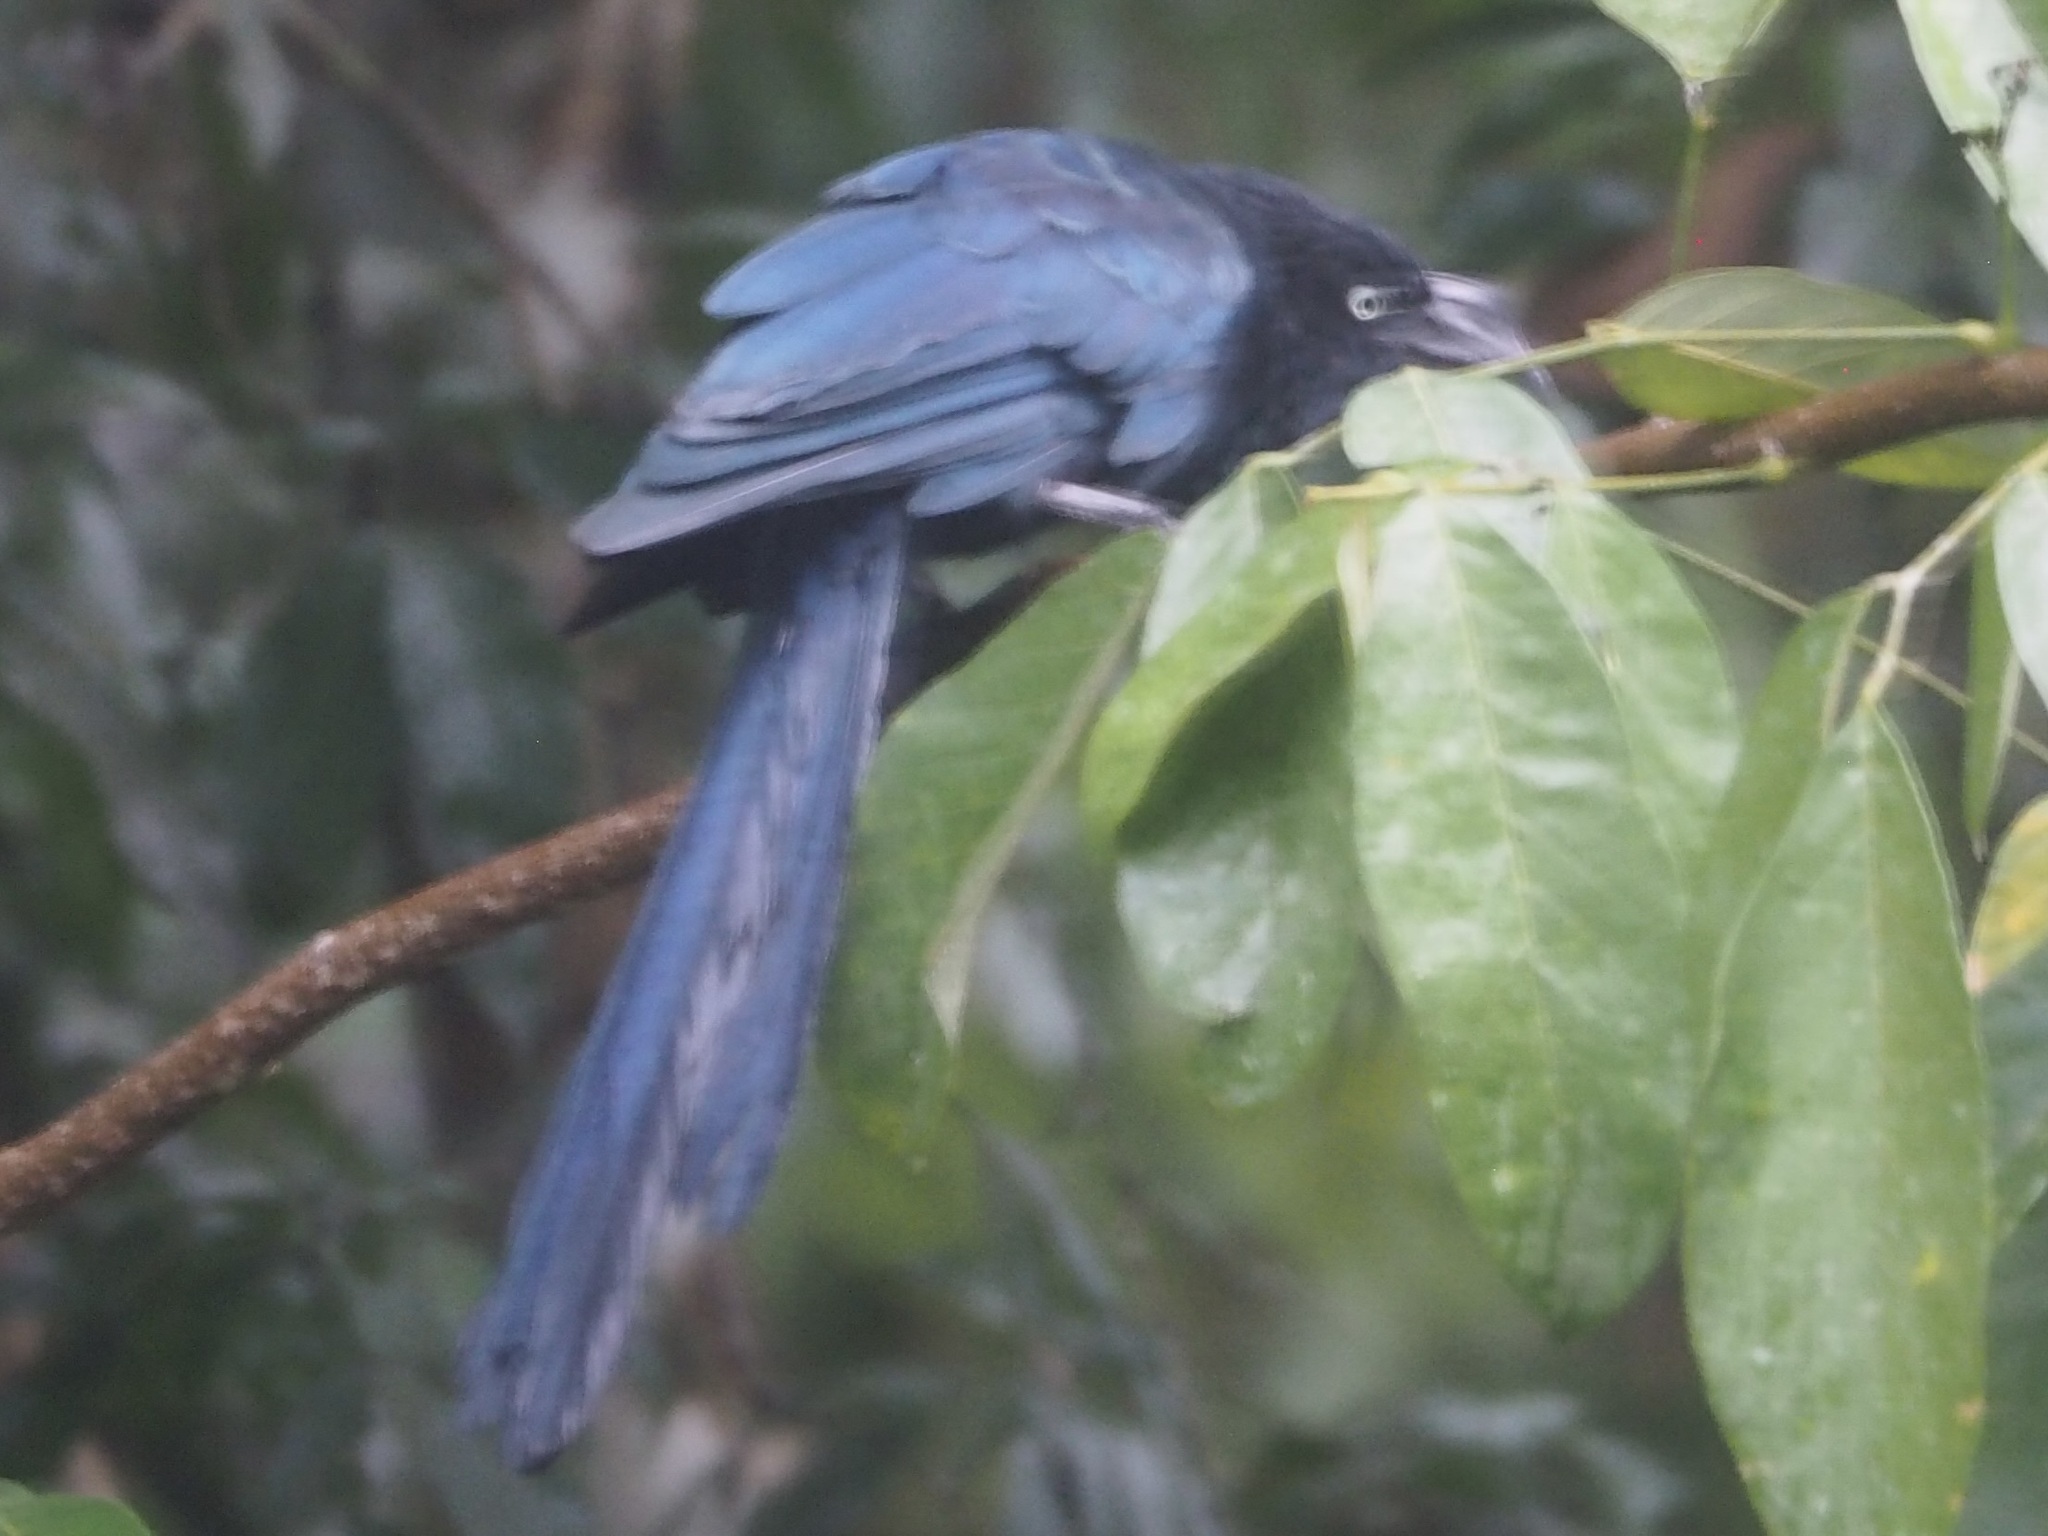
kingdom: Animalia
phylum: Chordata
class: Aves
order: Cuculiformes
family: Cuculidae
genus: Crotophaga
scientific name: Crotophaga major
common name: Greater ani
